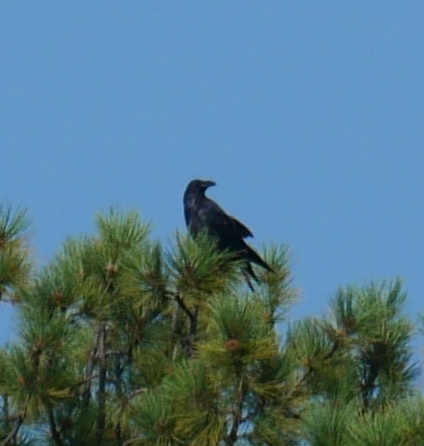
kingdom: Animalia
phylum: Chordata
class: Aves
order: Passeriformes
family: Corvidae
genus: Corvus
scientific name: Corvus corax
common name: Common raven
